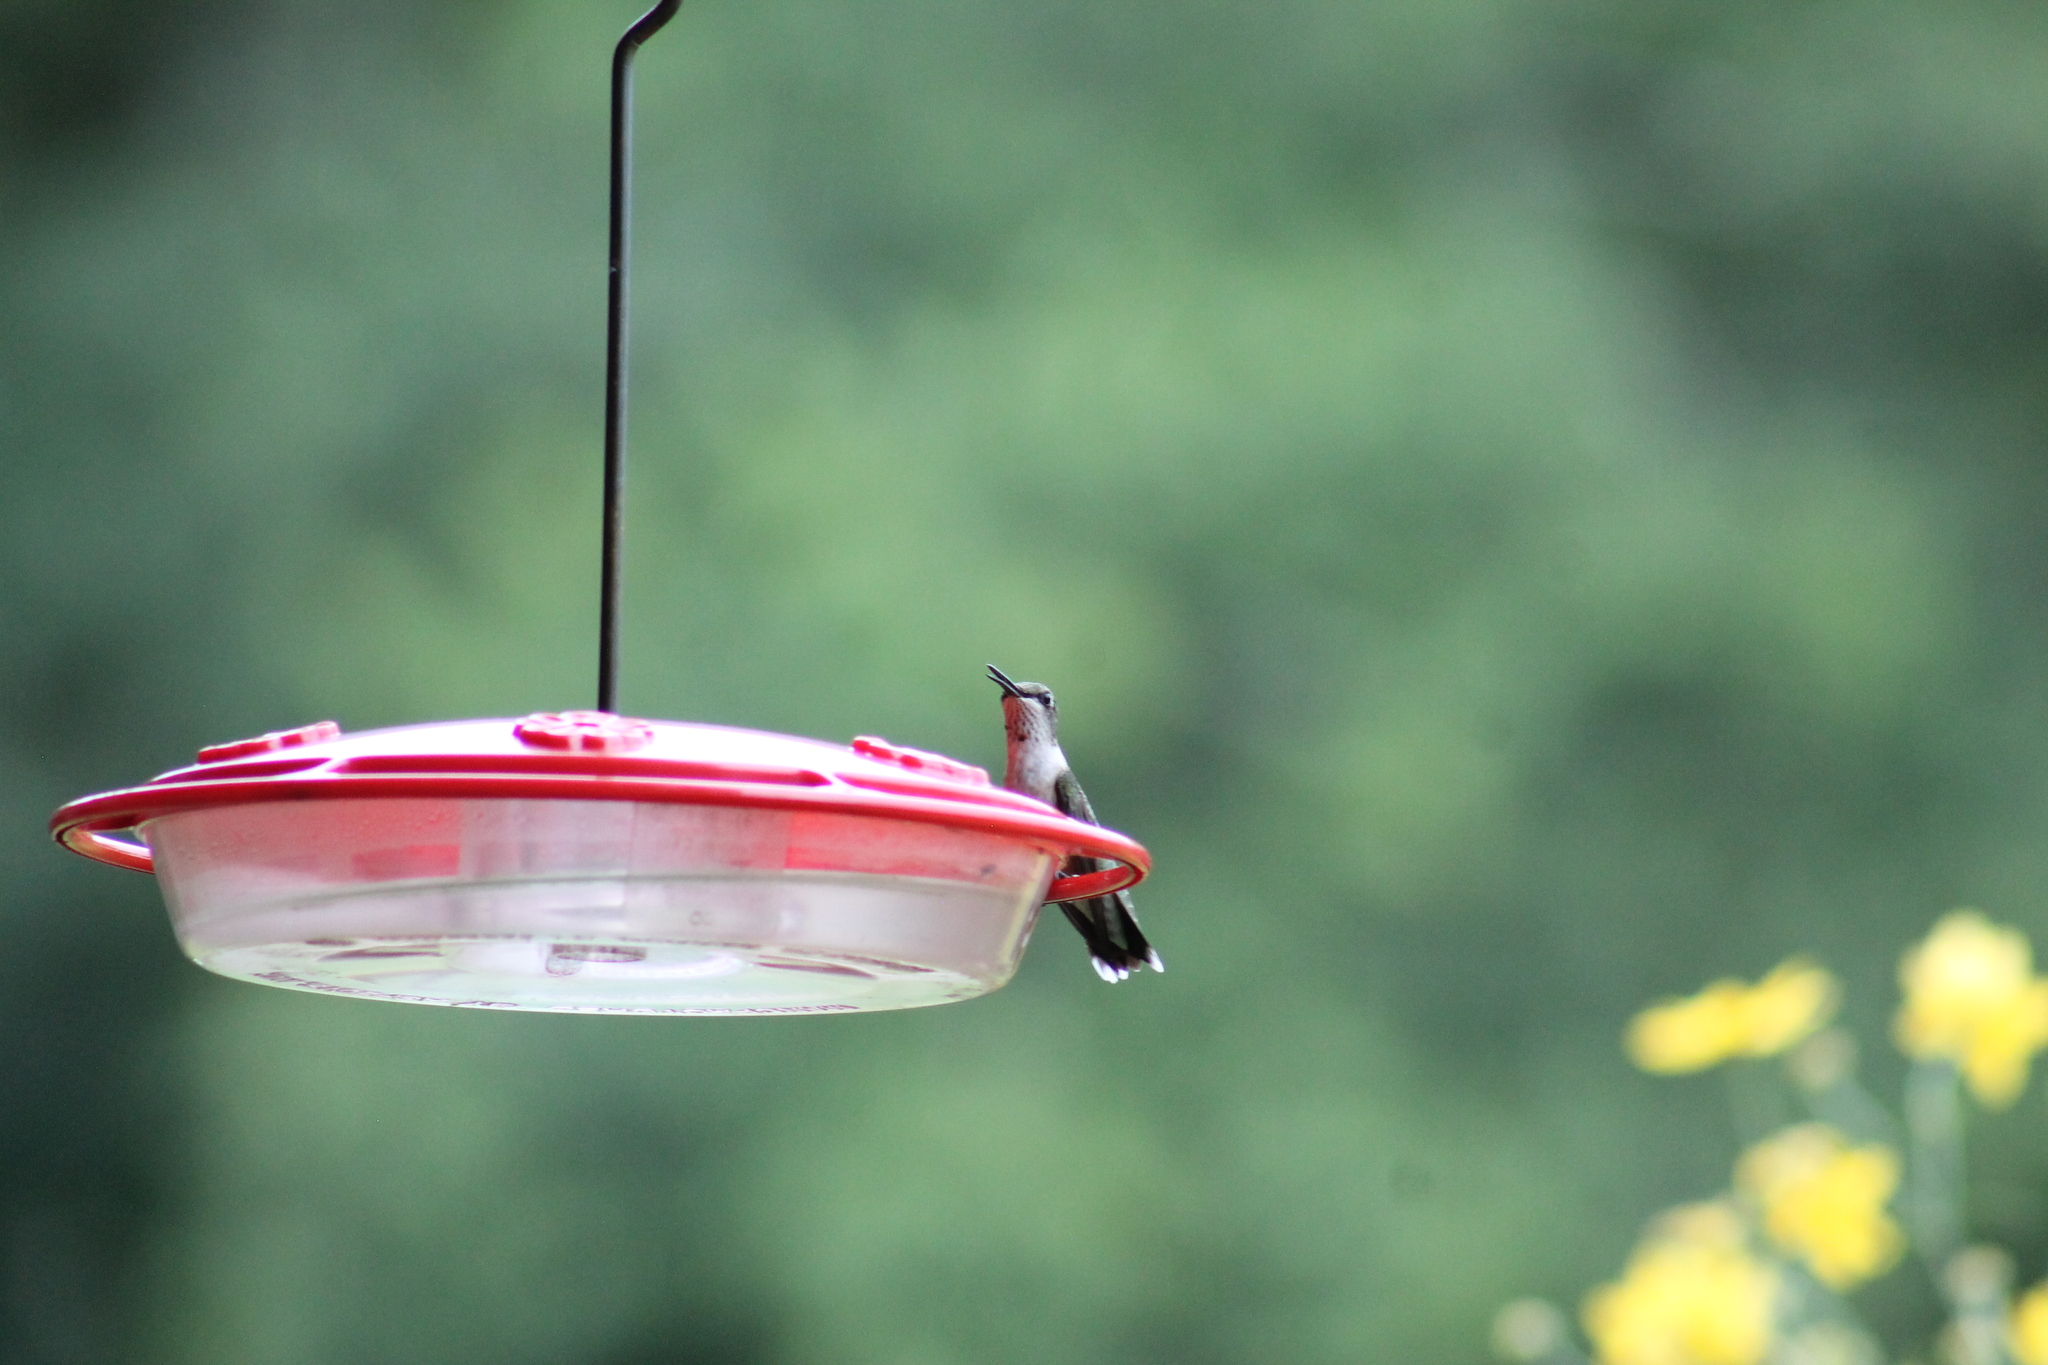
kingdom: Animalia
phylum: Chordata
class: Aves
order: Apodiformes
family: Trochilidae
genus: Archilochus
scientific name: Archilochus colubris
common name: Ruby-throated hummingbird
